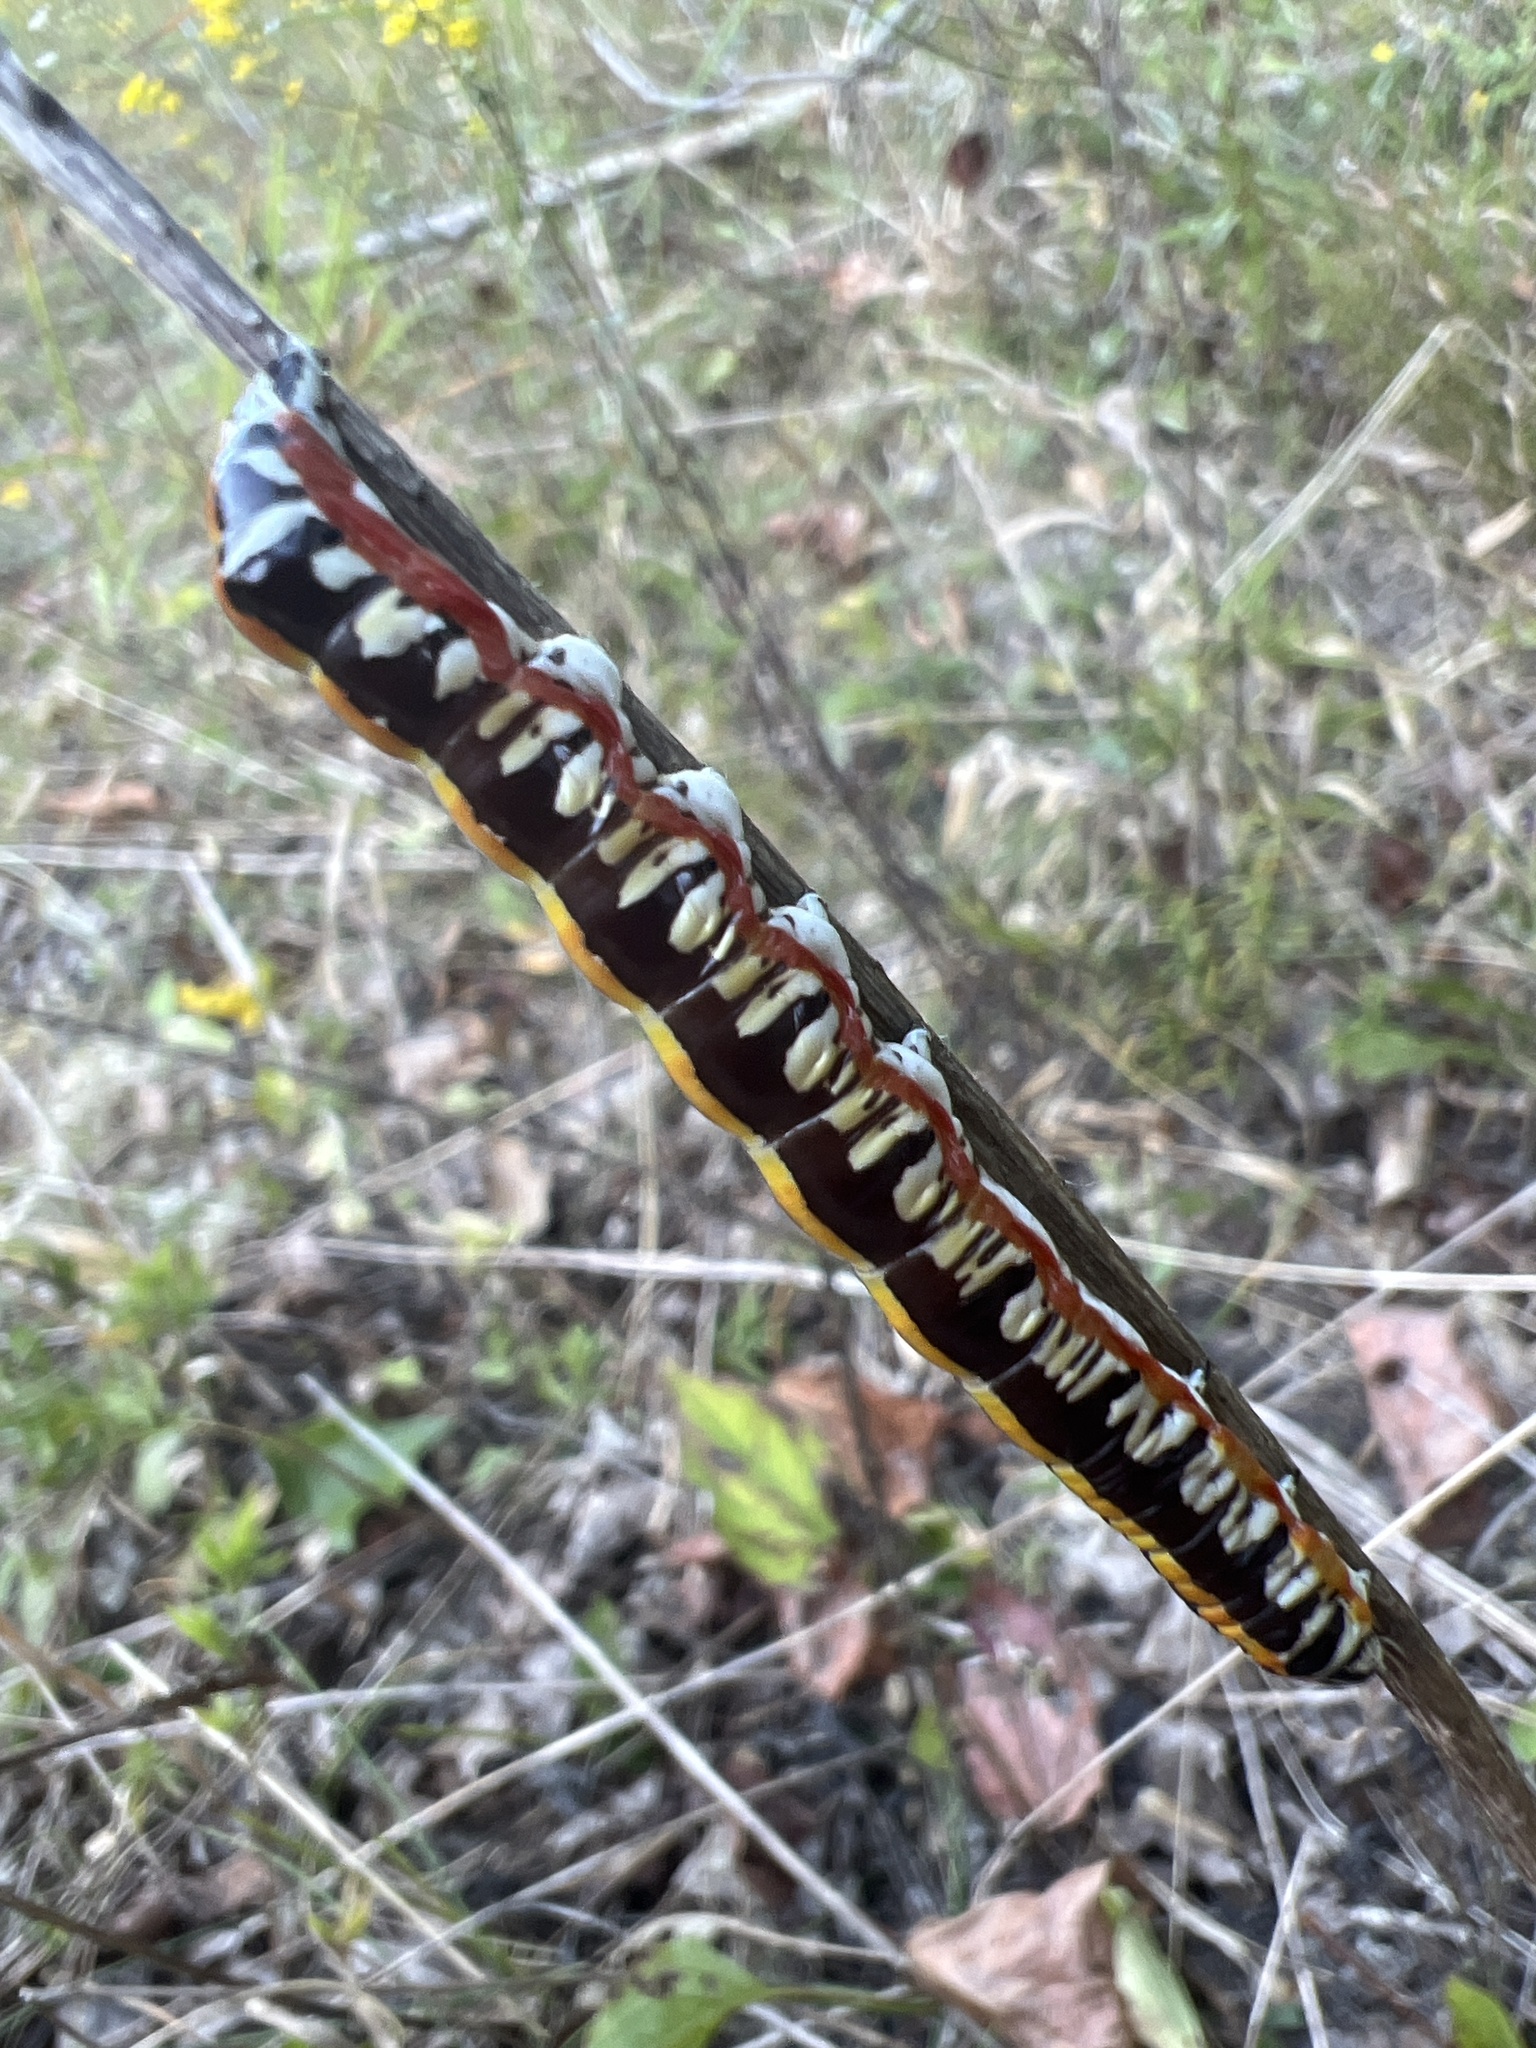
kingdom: Animalia
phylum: Arthropoda
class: Insecta
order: Lepidoptera
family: Noctuidae
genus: Cucullia
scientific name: Cucullia alfarata
